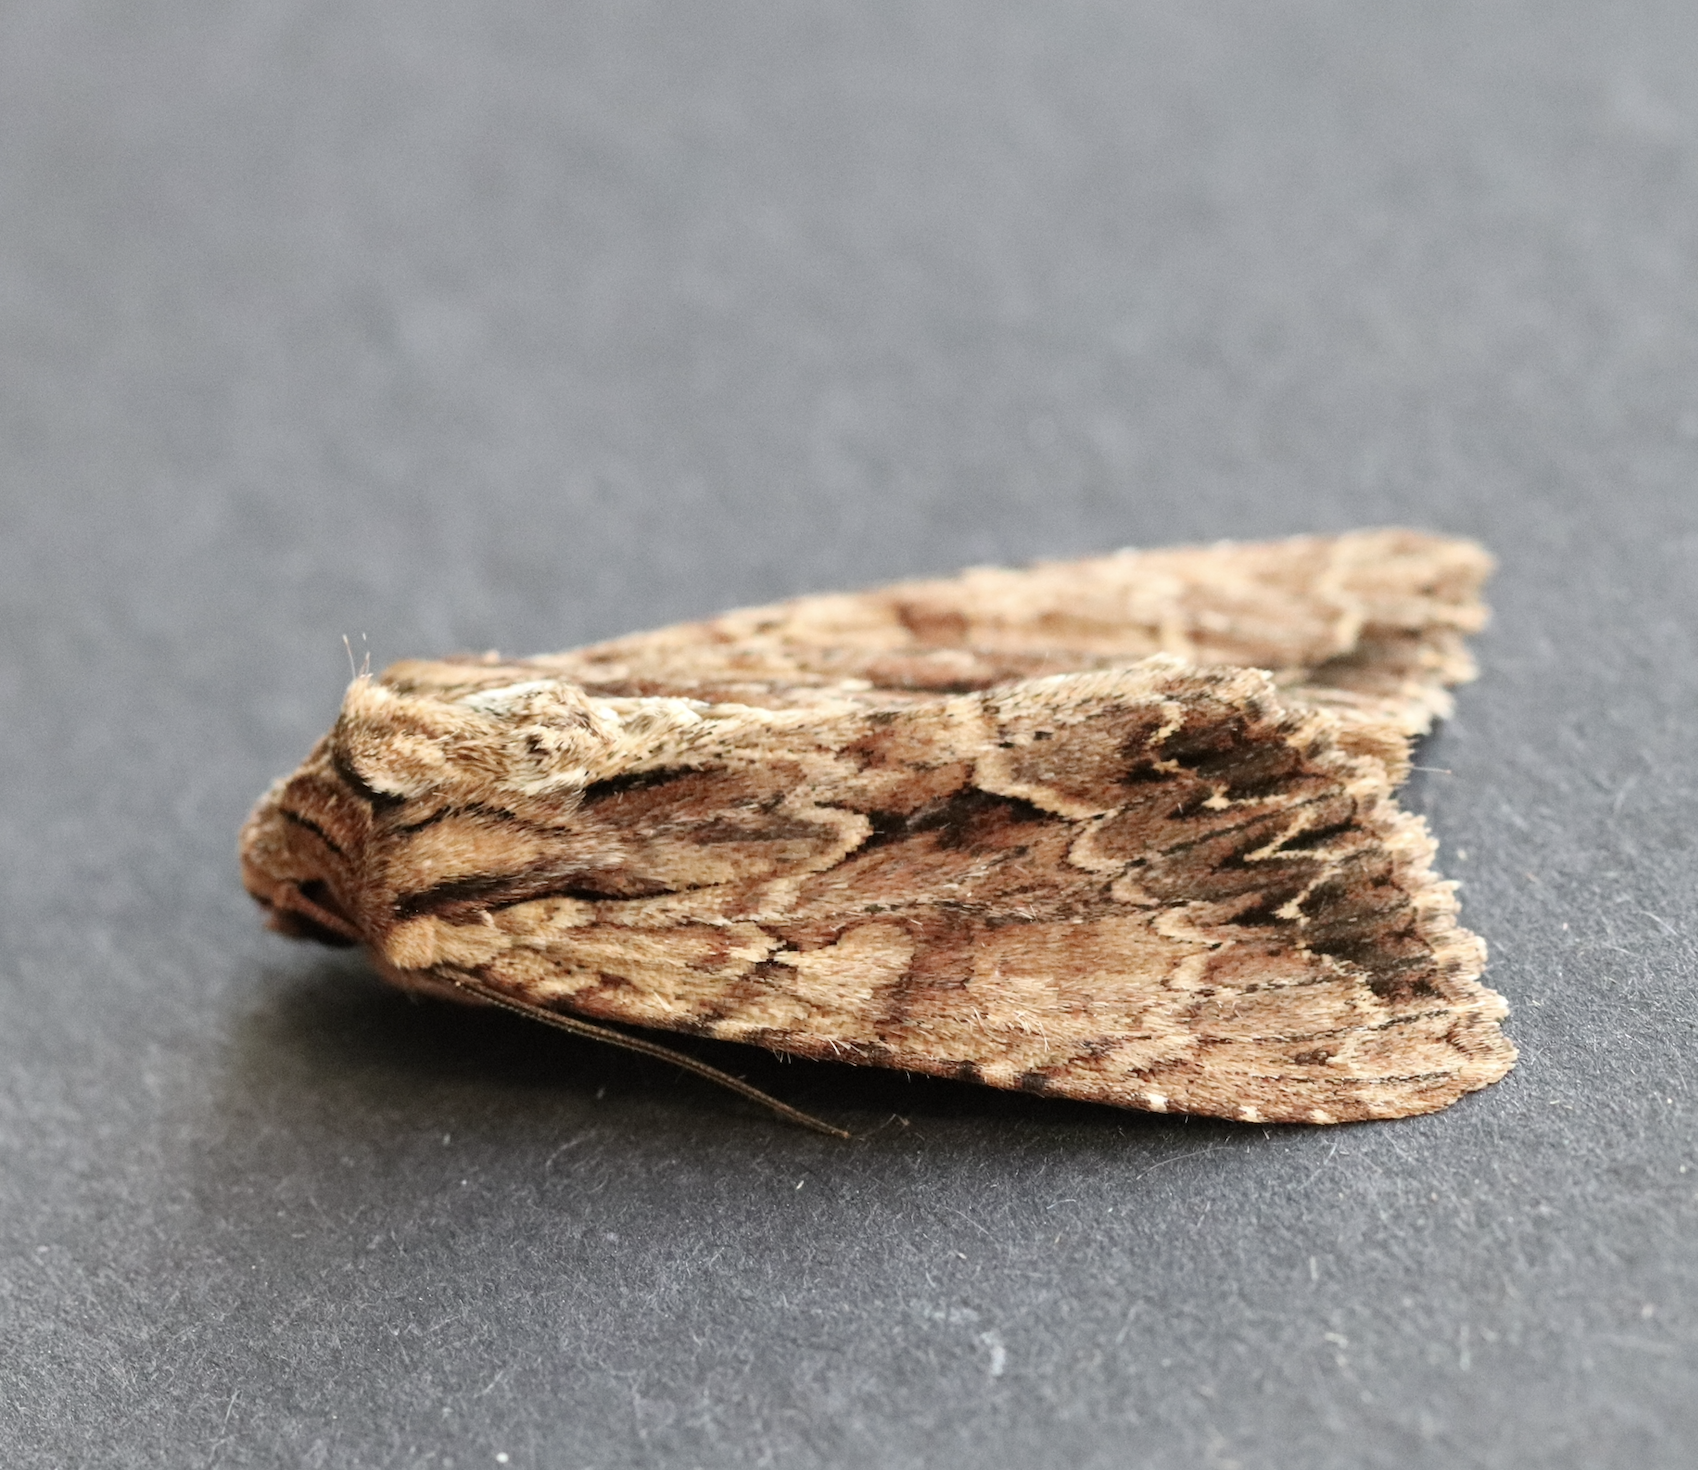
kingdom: Animalia
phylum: Arthropoda
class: Insecta
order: Lepidoptera
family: Noctuidae
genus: Apamea
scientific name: Apamea monoglypha
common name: Dark arches
